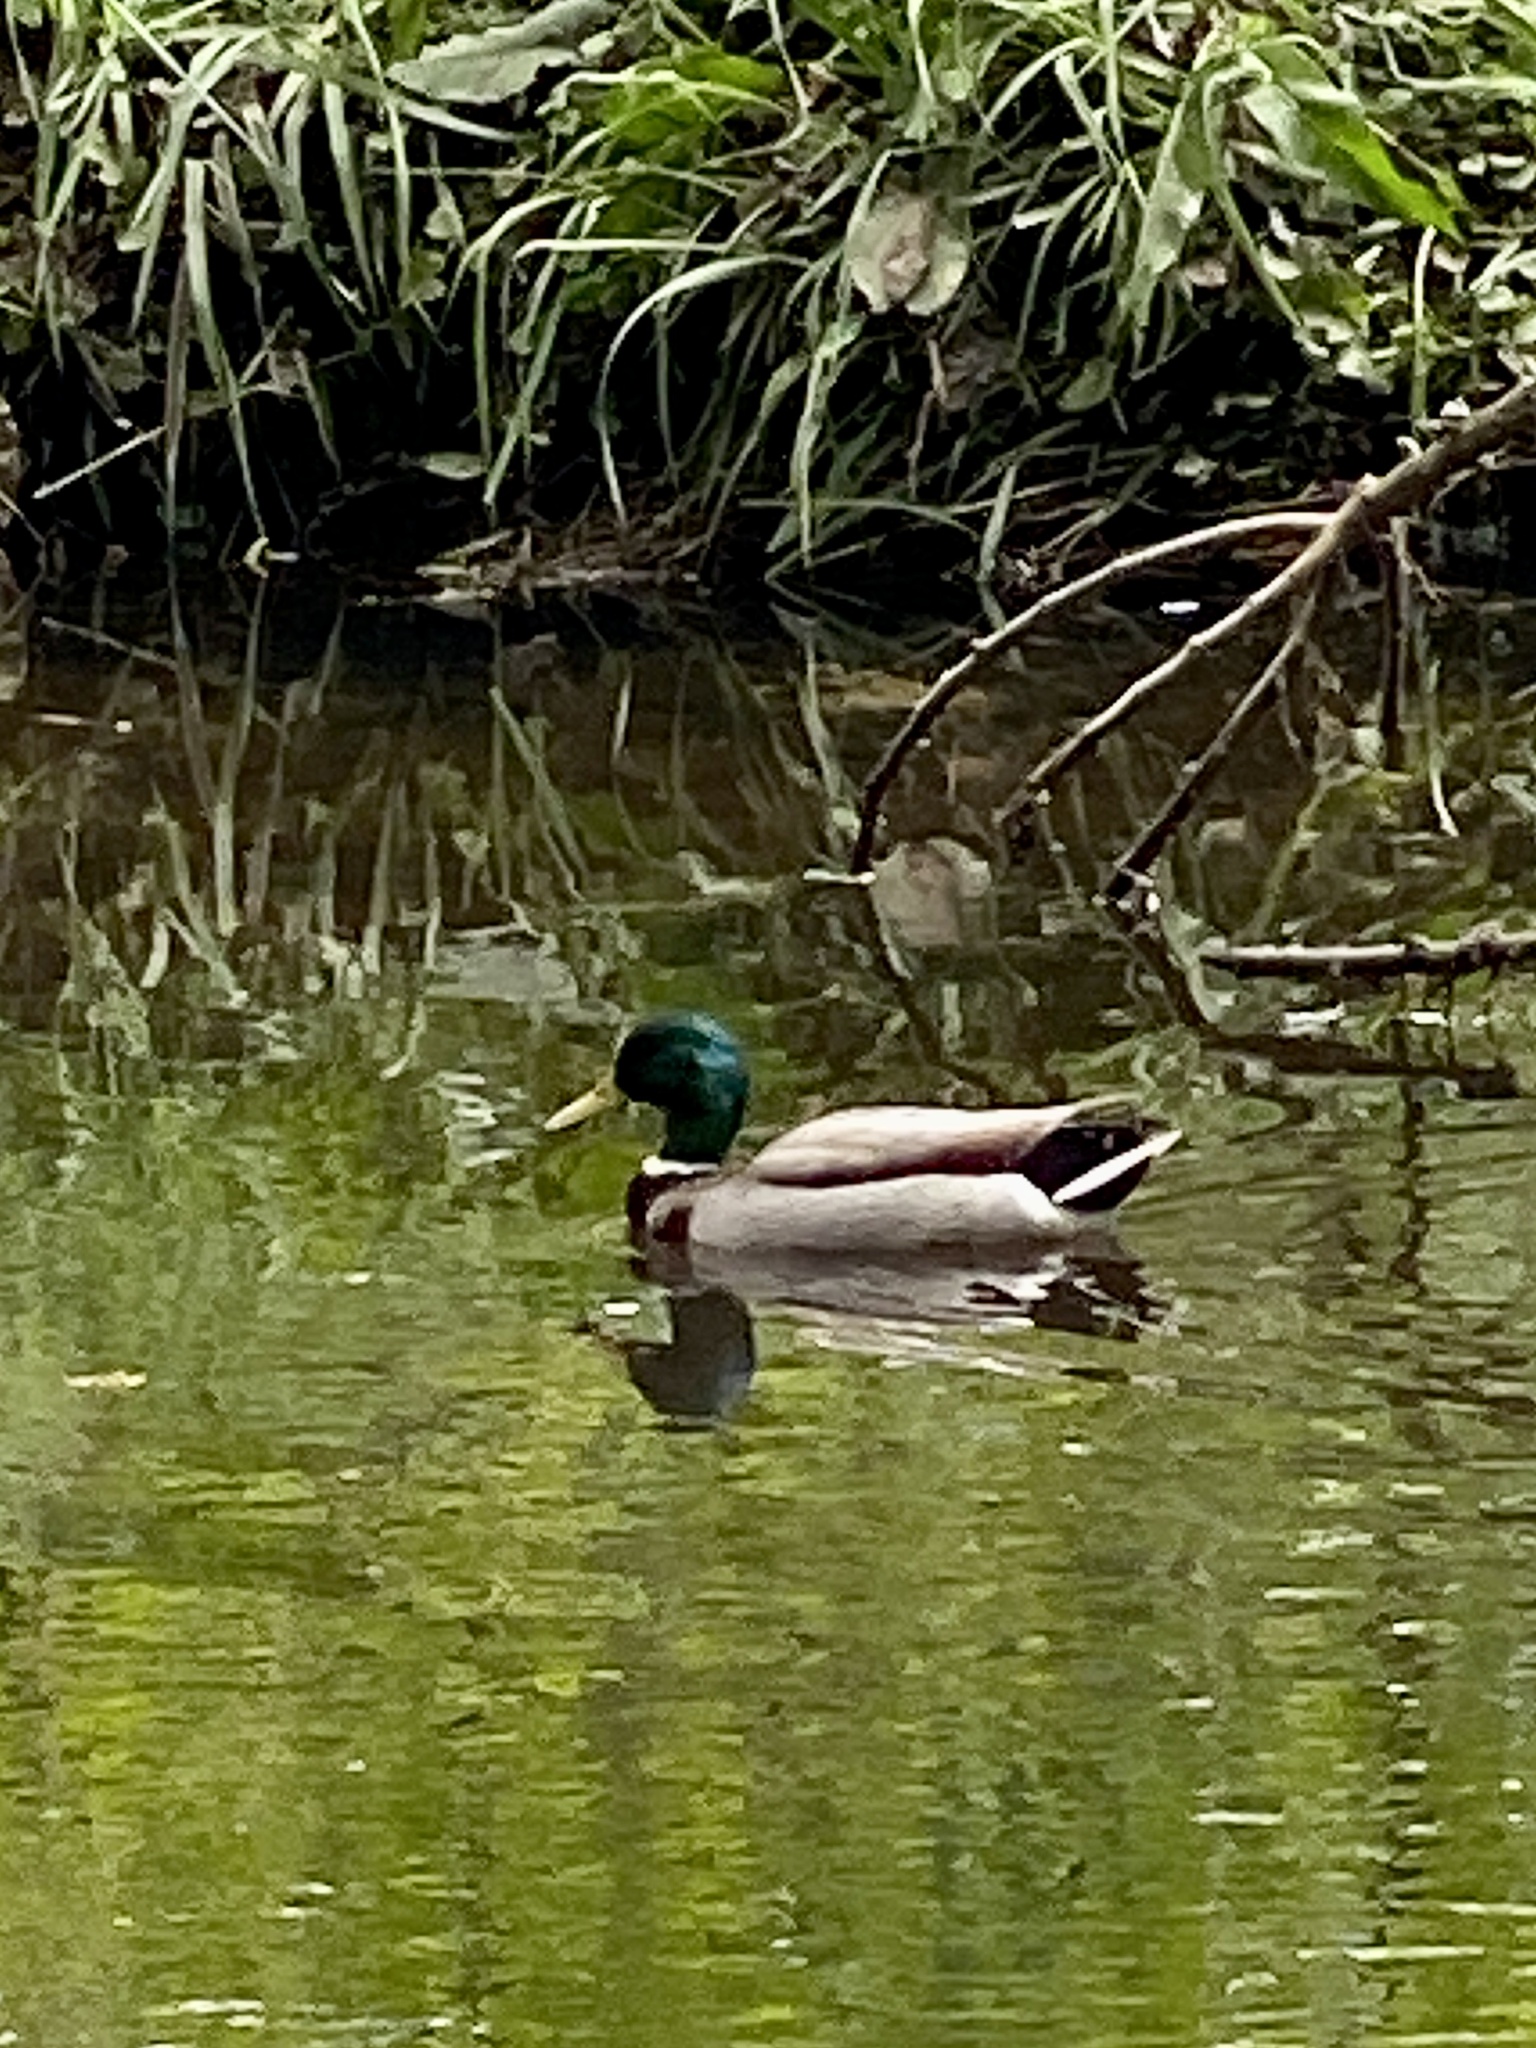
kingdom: Animalia
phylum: Chordata
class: Aves
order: Anseriformes
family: Anatidae
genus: Anas
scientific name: Anas platyrhynchos
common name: Mallard
